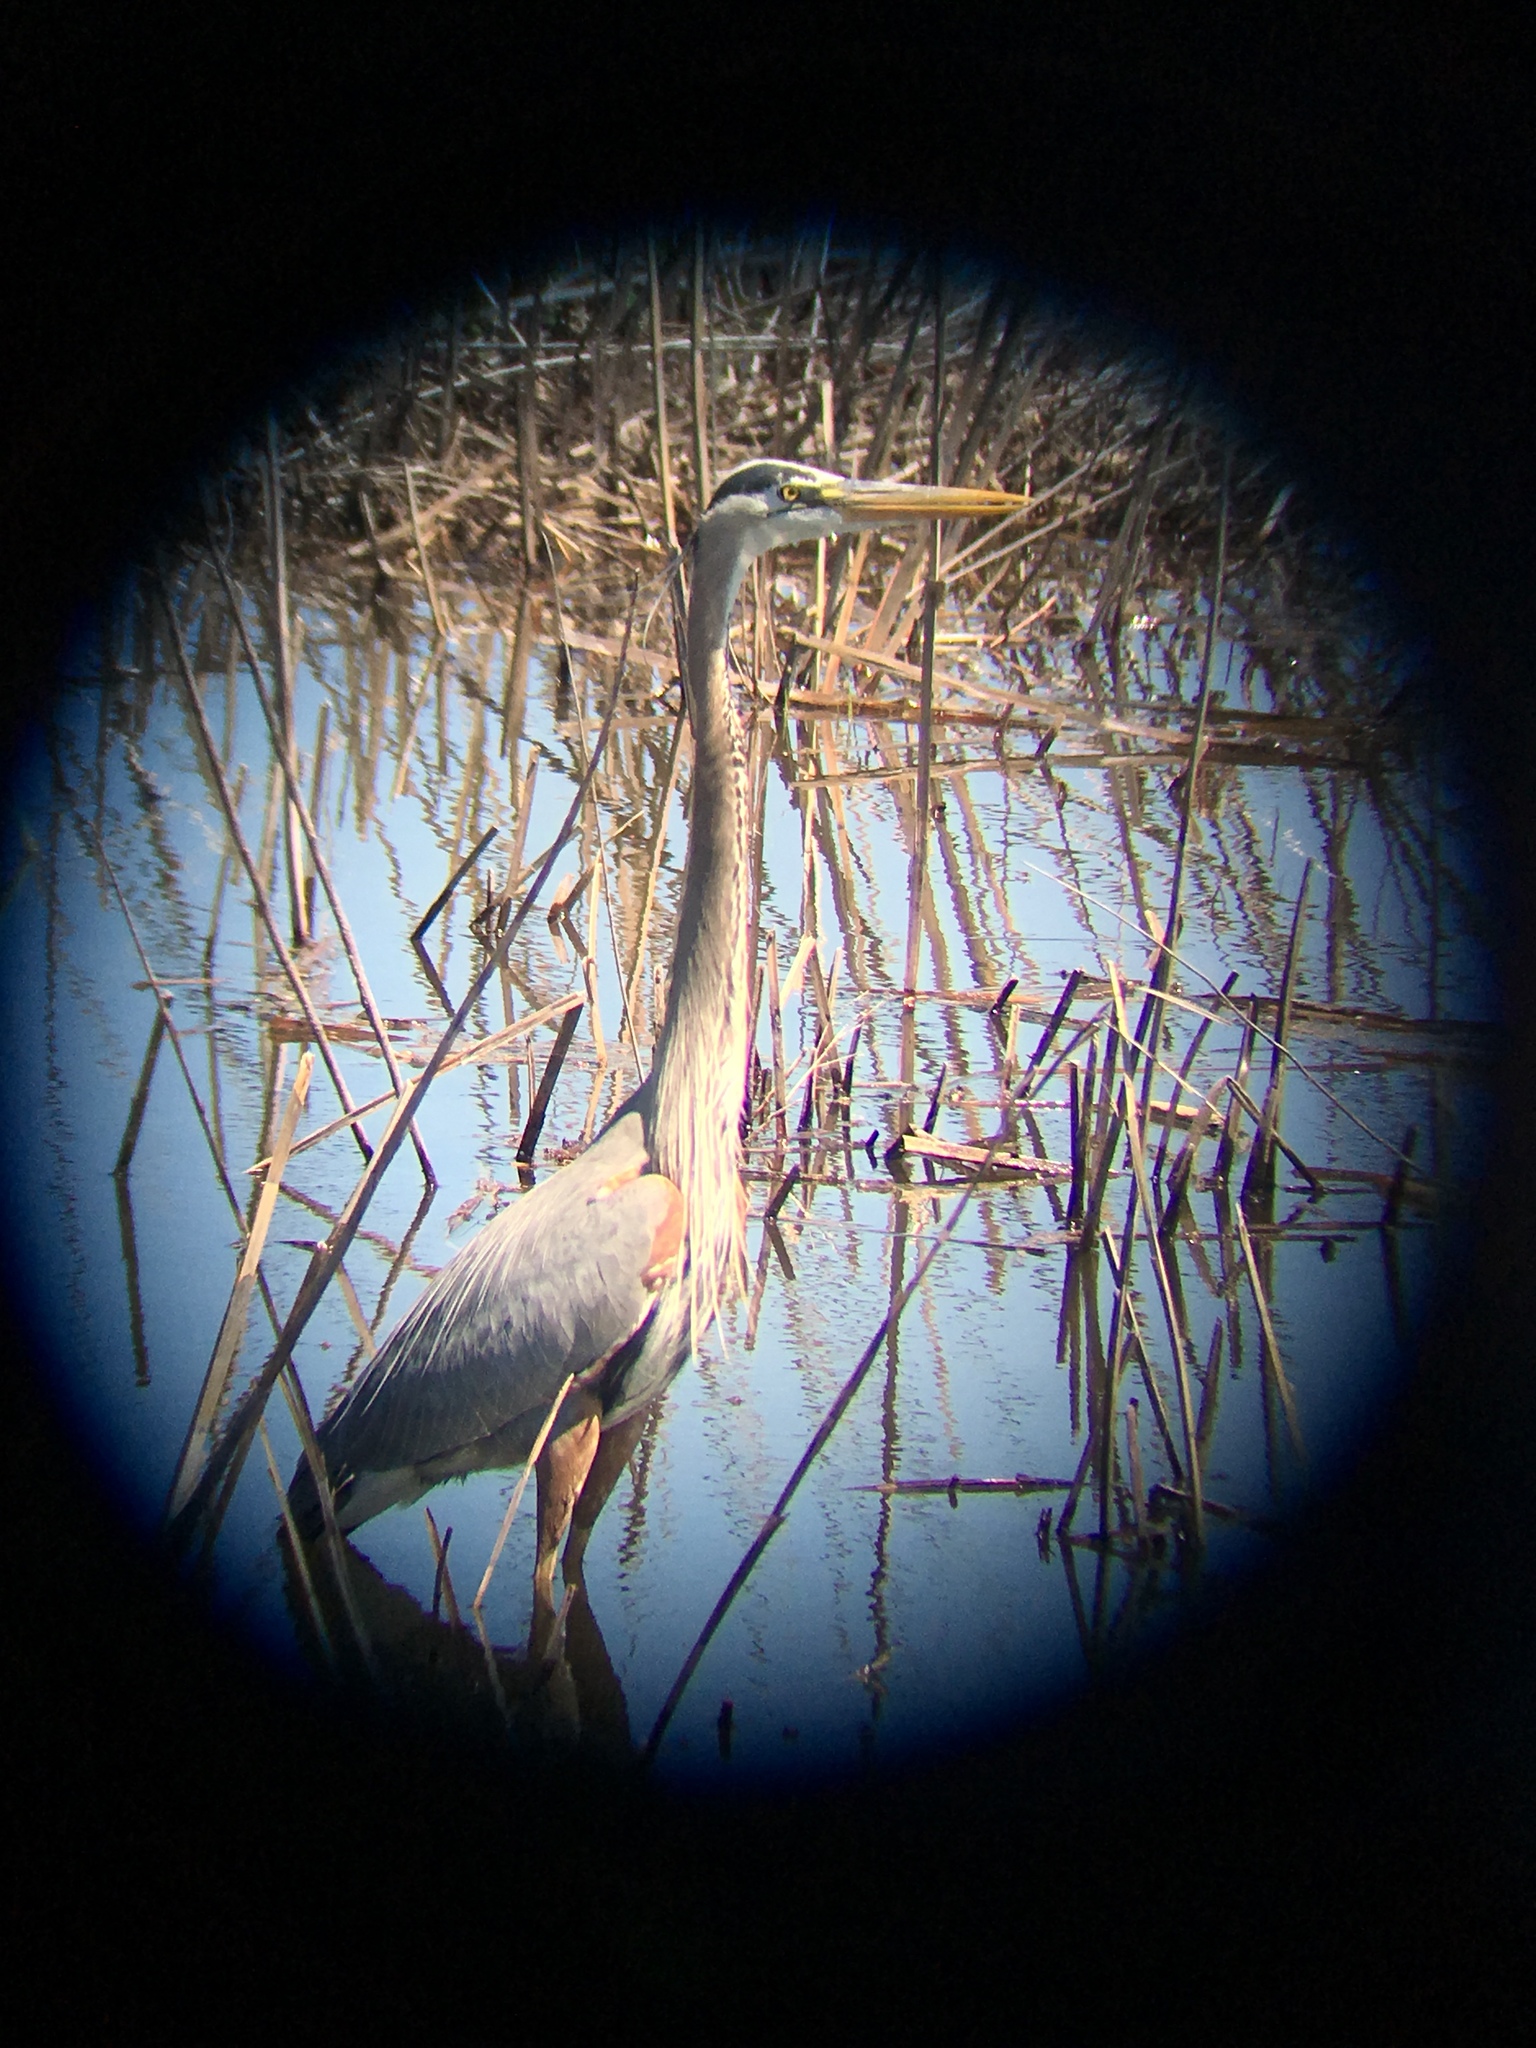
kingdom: Animalia
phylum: Chordata
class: Aves
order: Pelecaniformes
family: Ardeidae
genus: Ardea
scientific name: Ardea herodias
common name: Great blue heron
